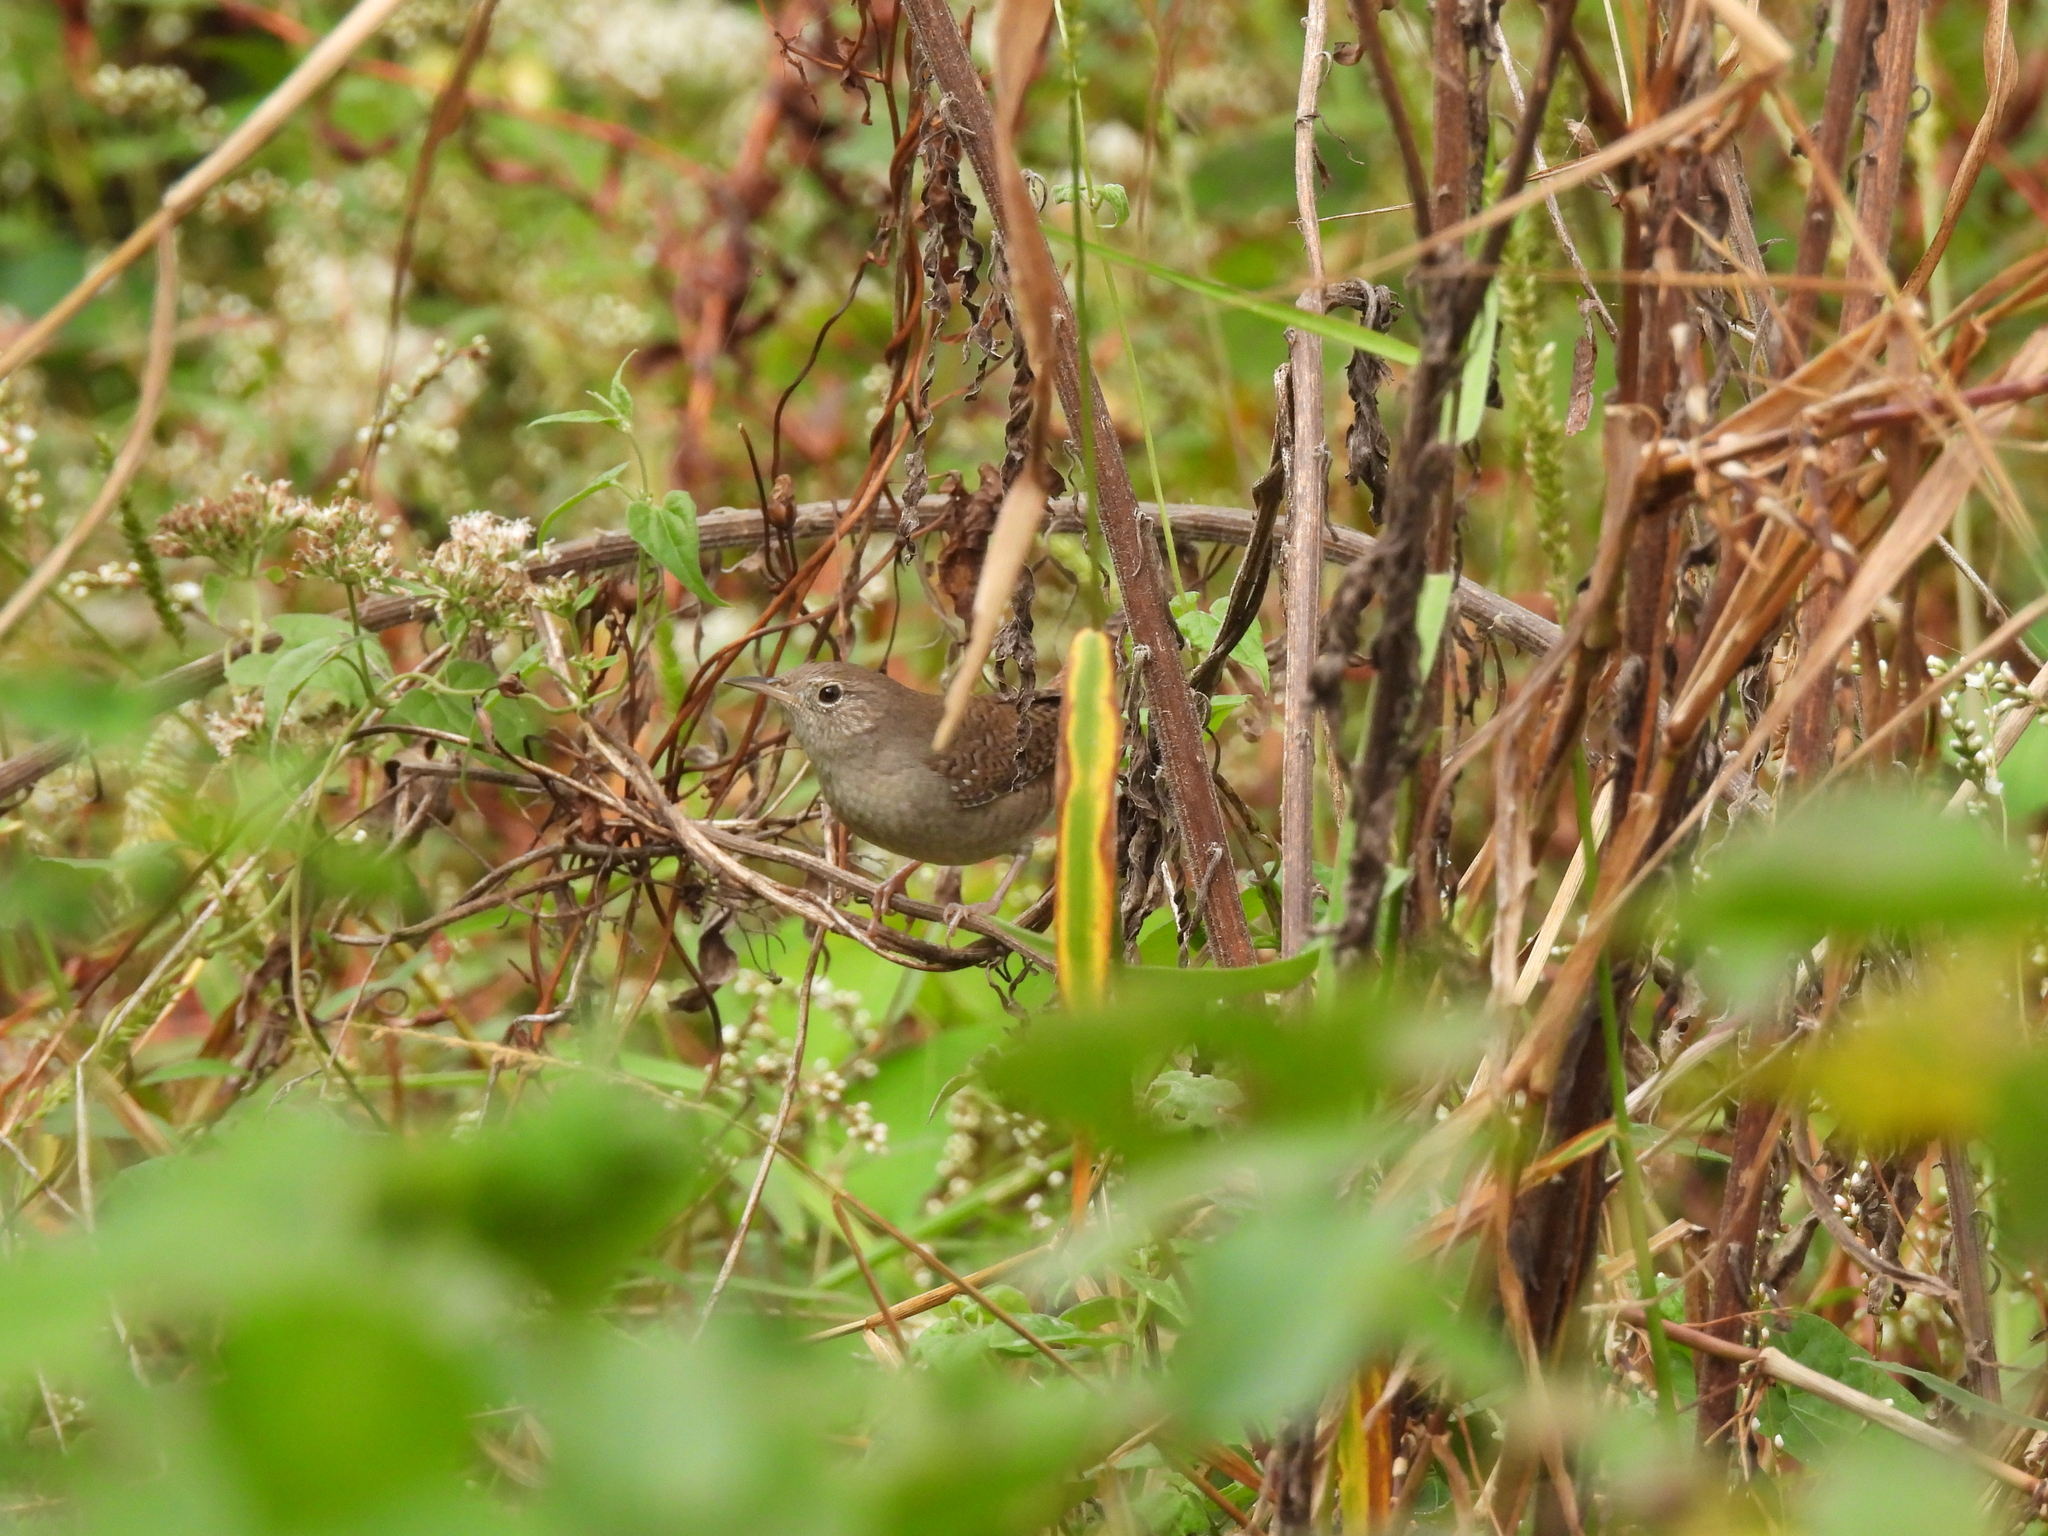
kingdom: Animalia
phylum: Chordata
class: Aves
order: Passeriformes
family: Troglodytidae
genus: Troglodytes
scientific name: Troglodytes aedon
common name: House wren
